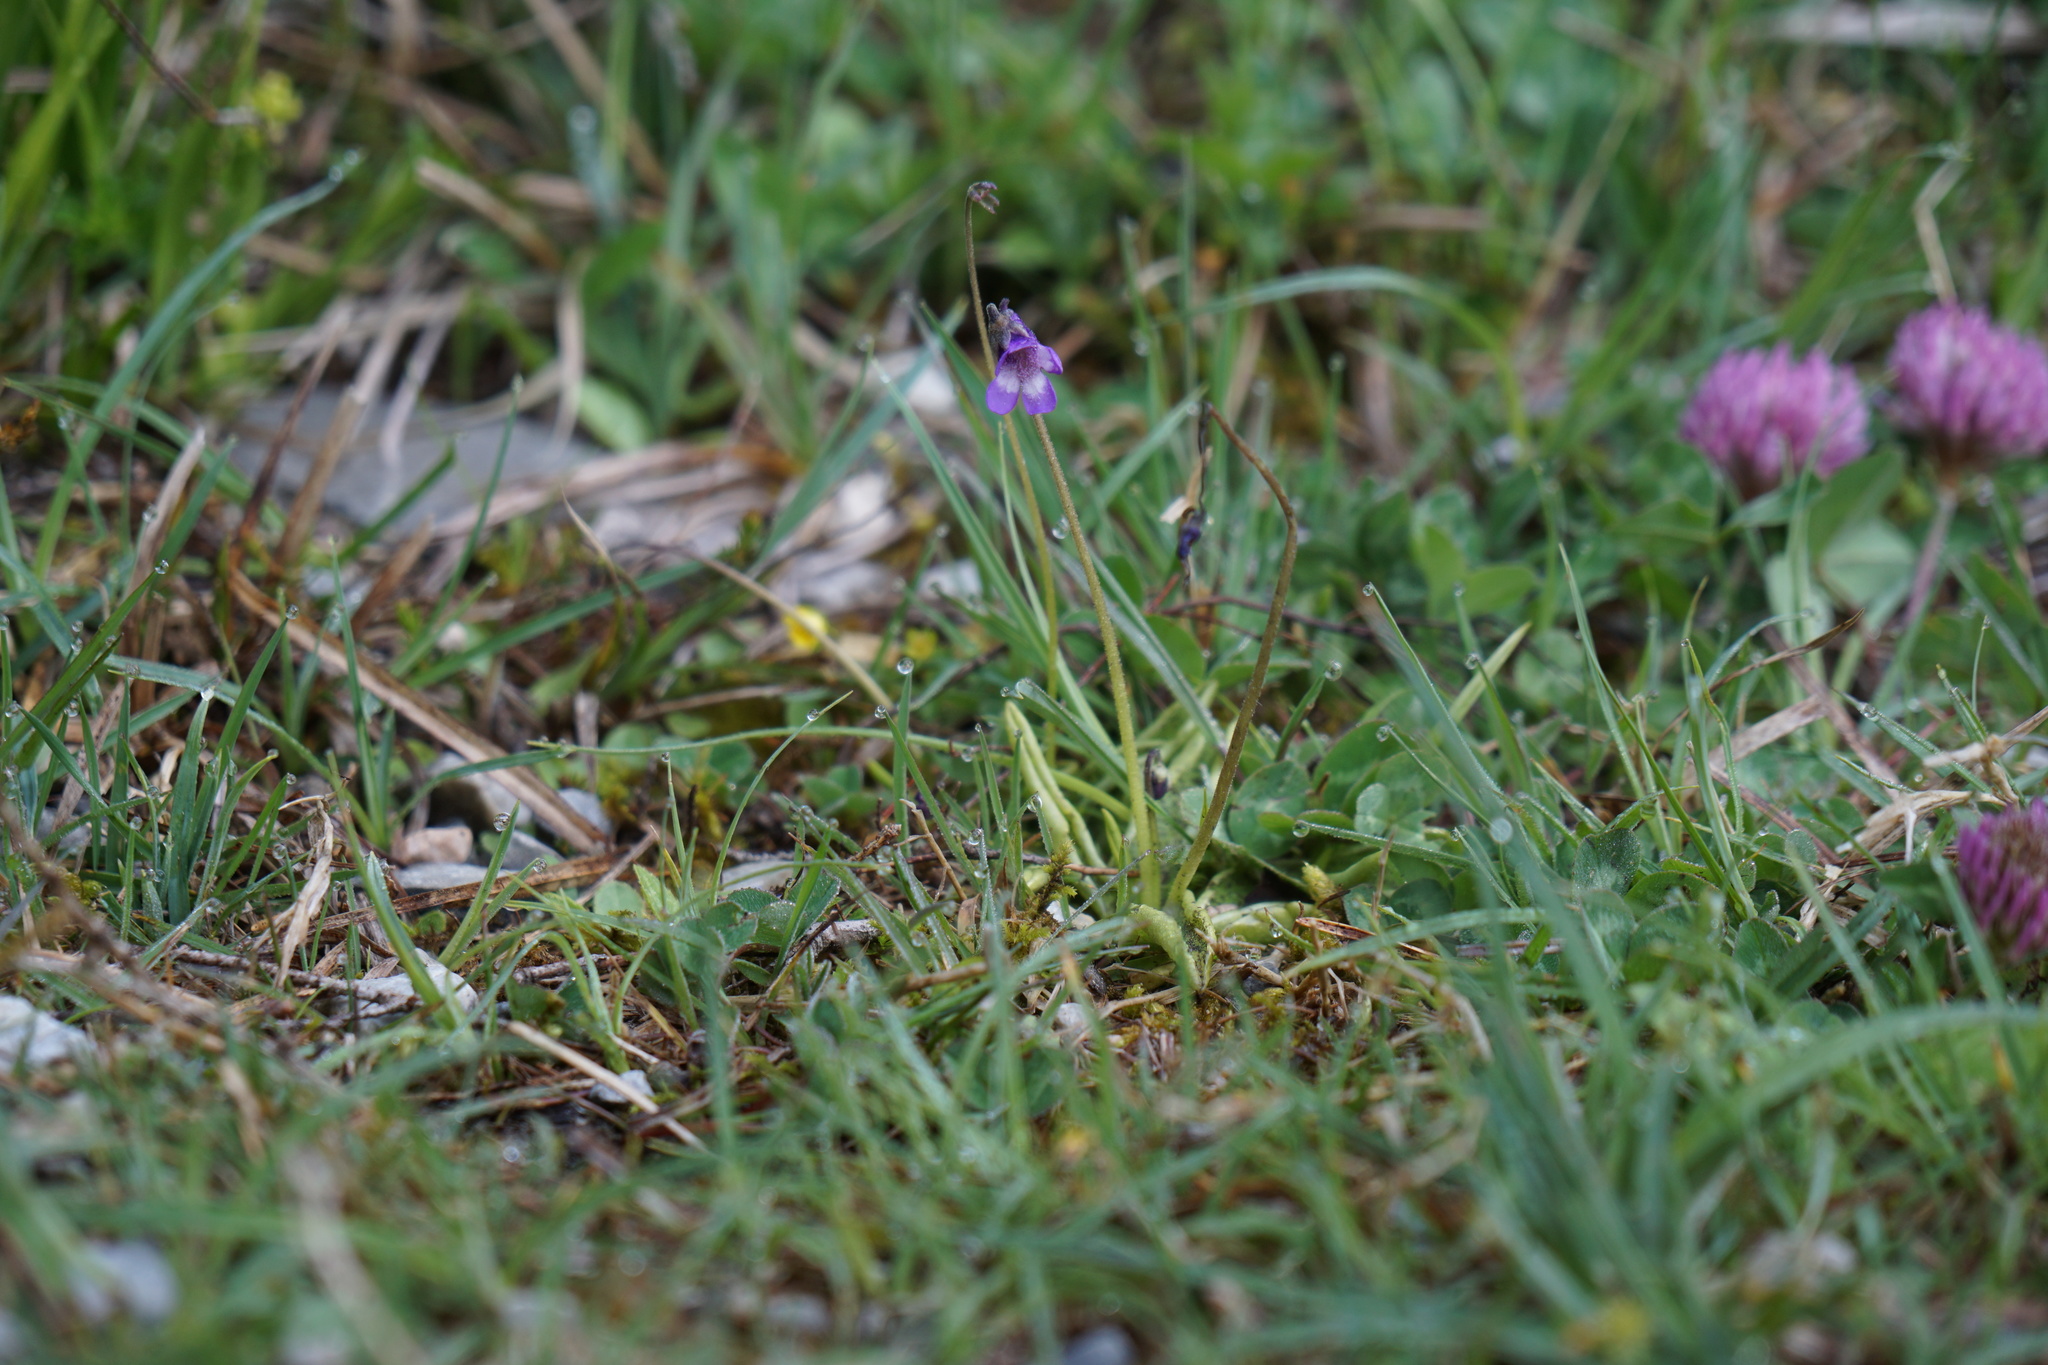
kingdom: Plantae
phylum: Tracheophyta
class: Magnoliopsida
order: Lamiales
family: Lentibulariaceae
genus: Pinguicula
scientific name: Pinguicula vulgaris
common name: Common butterwort
